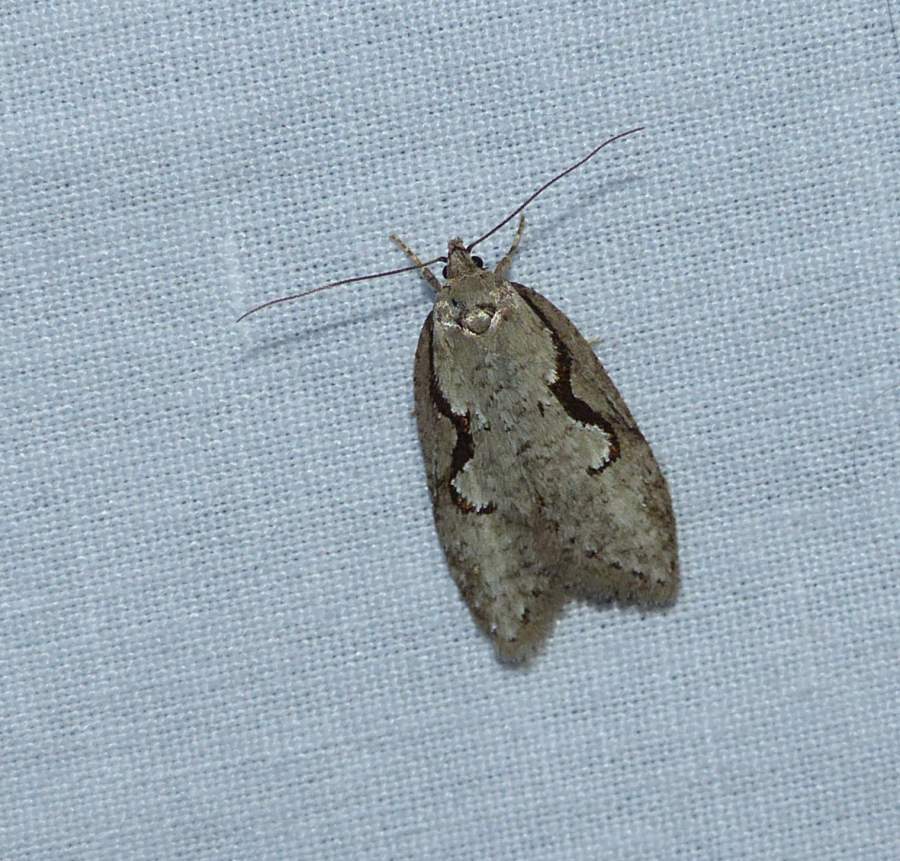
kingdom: Animalia
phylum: Arthropoda
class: Insecta
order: Lepidoptera
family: Depressariidae
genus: Semioscopis
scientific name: Semioscopis packardella
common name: Packard's concealer moth
